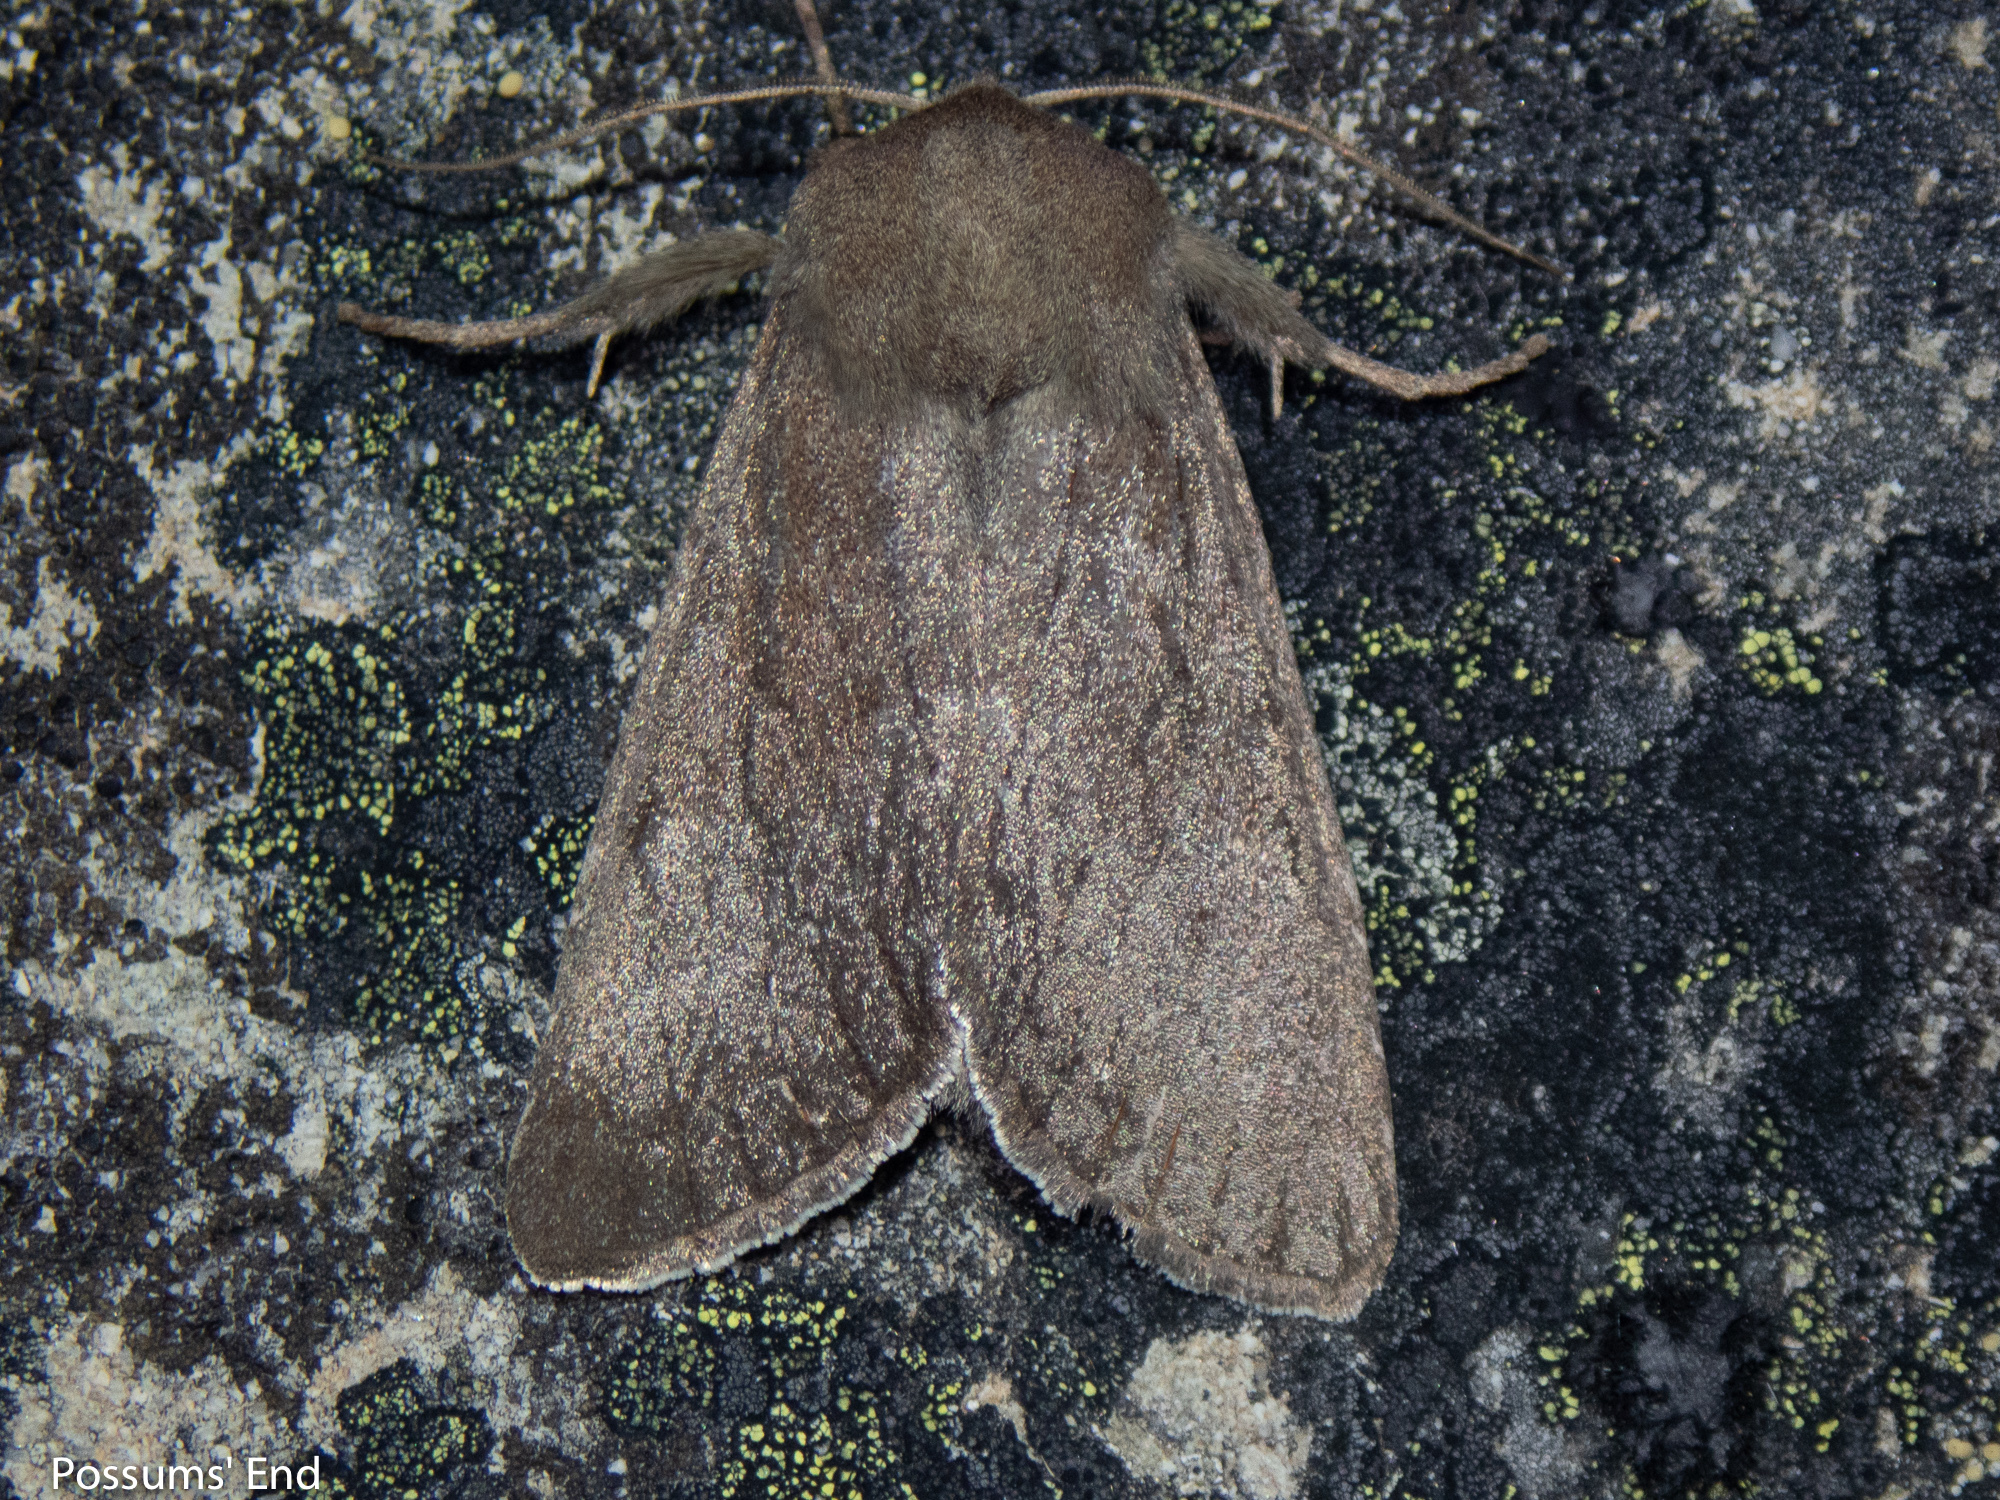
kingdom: Animalia
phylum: Arthropoda
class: Insecta
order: Lepidoptera
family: Noctuidae
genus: Ichneutica
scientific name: Ichneutica nullifera
